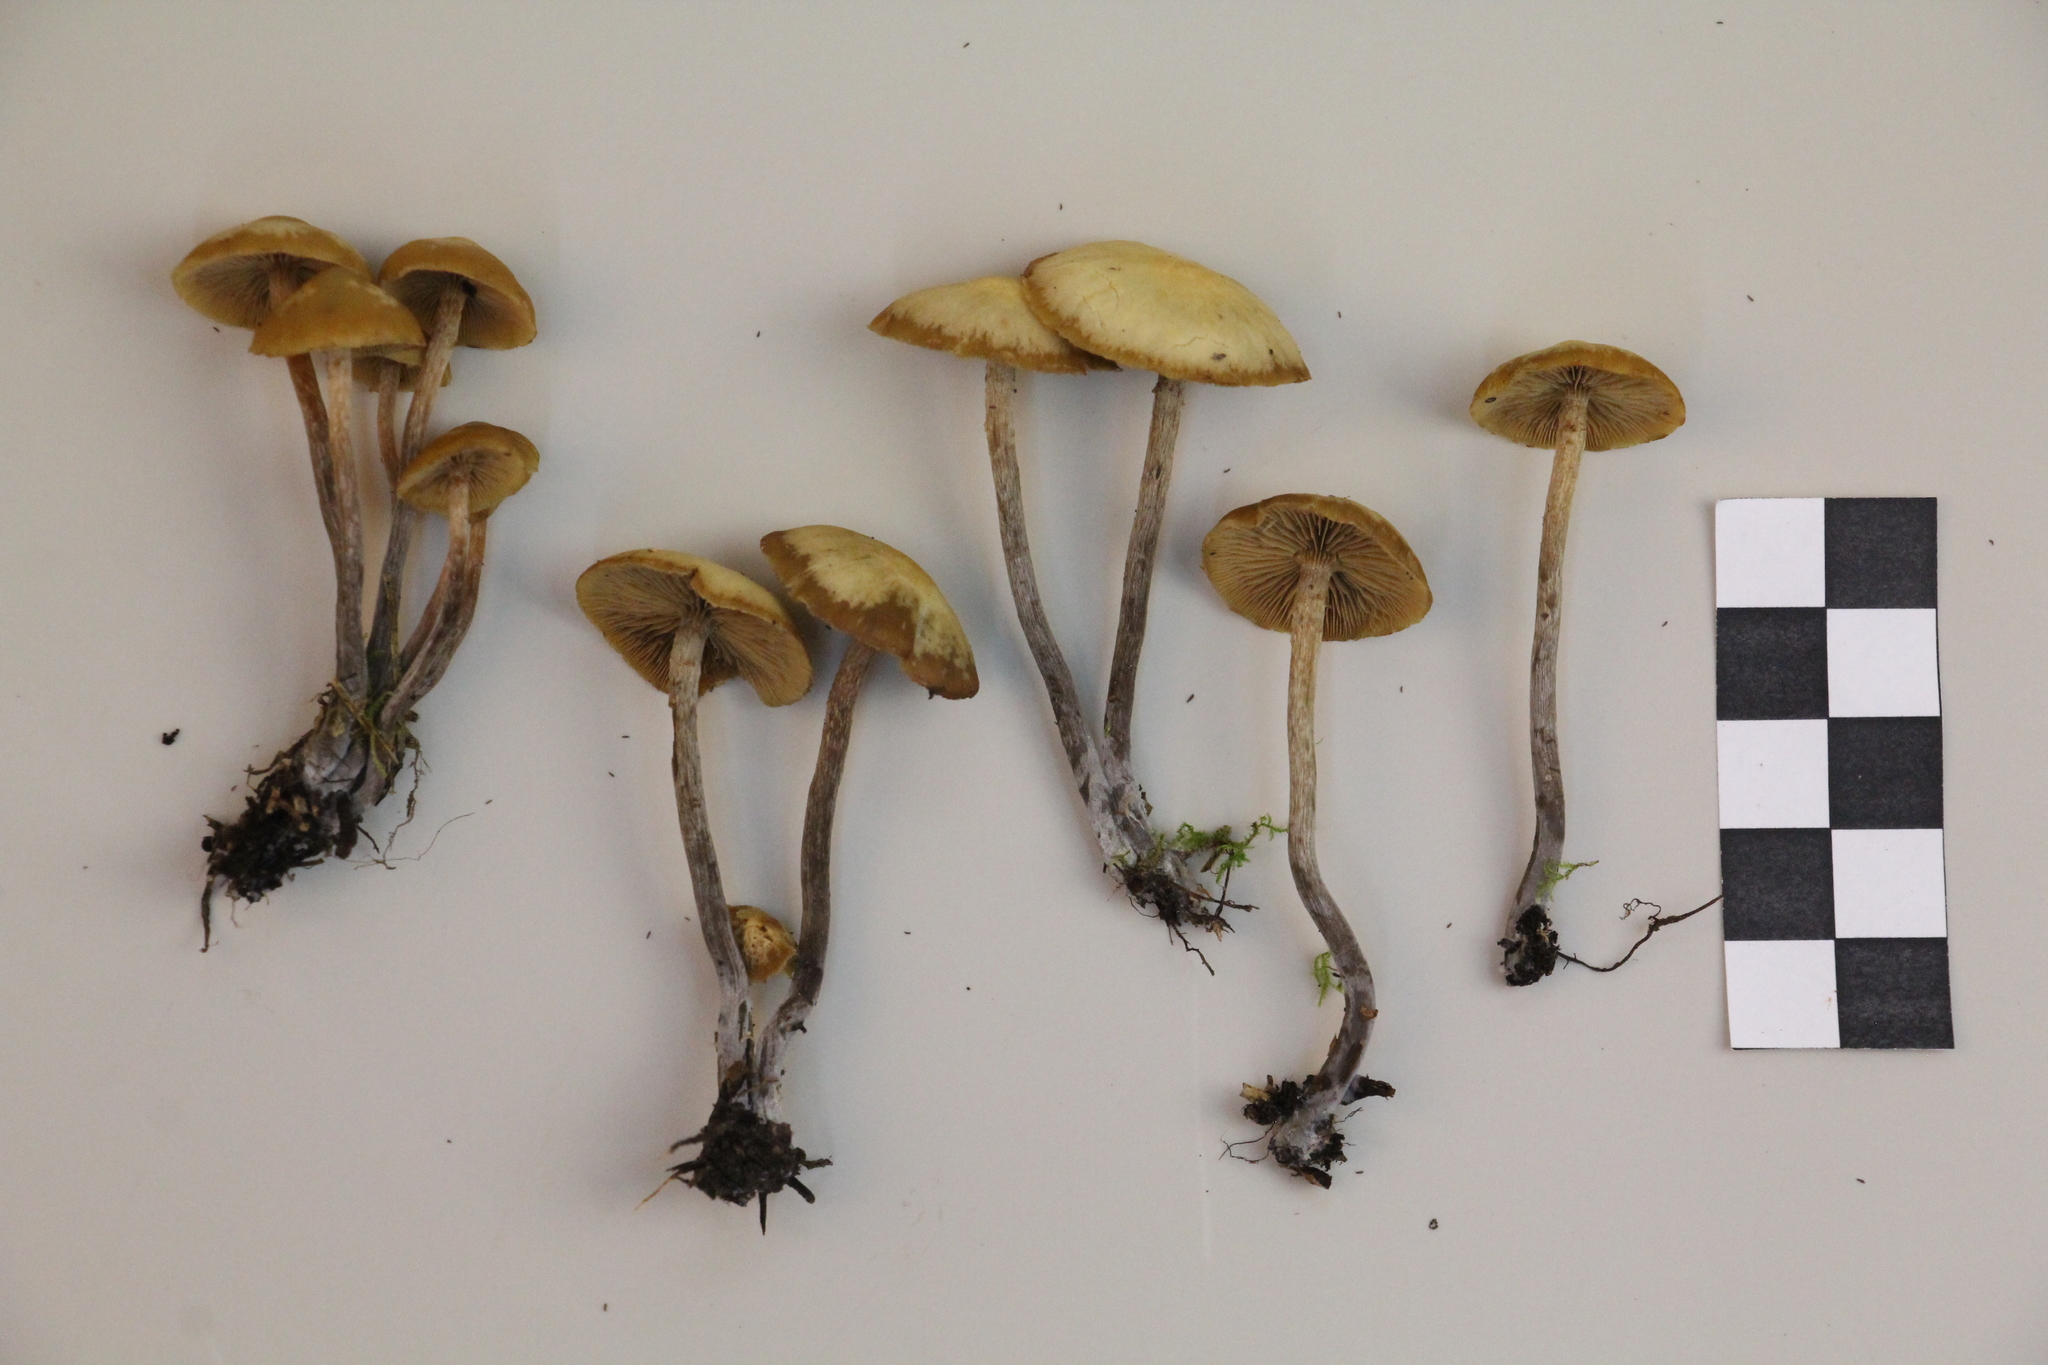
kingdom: Fungi
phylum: Basidiomycota
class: Agaricomycetes
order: Agaricales
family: Strophariaceae
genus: Pholiota
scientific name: Pholiota lignicola
